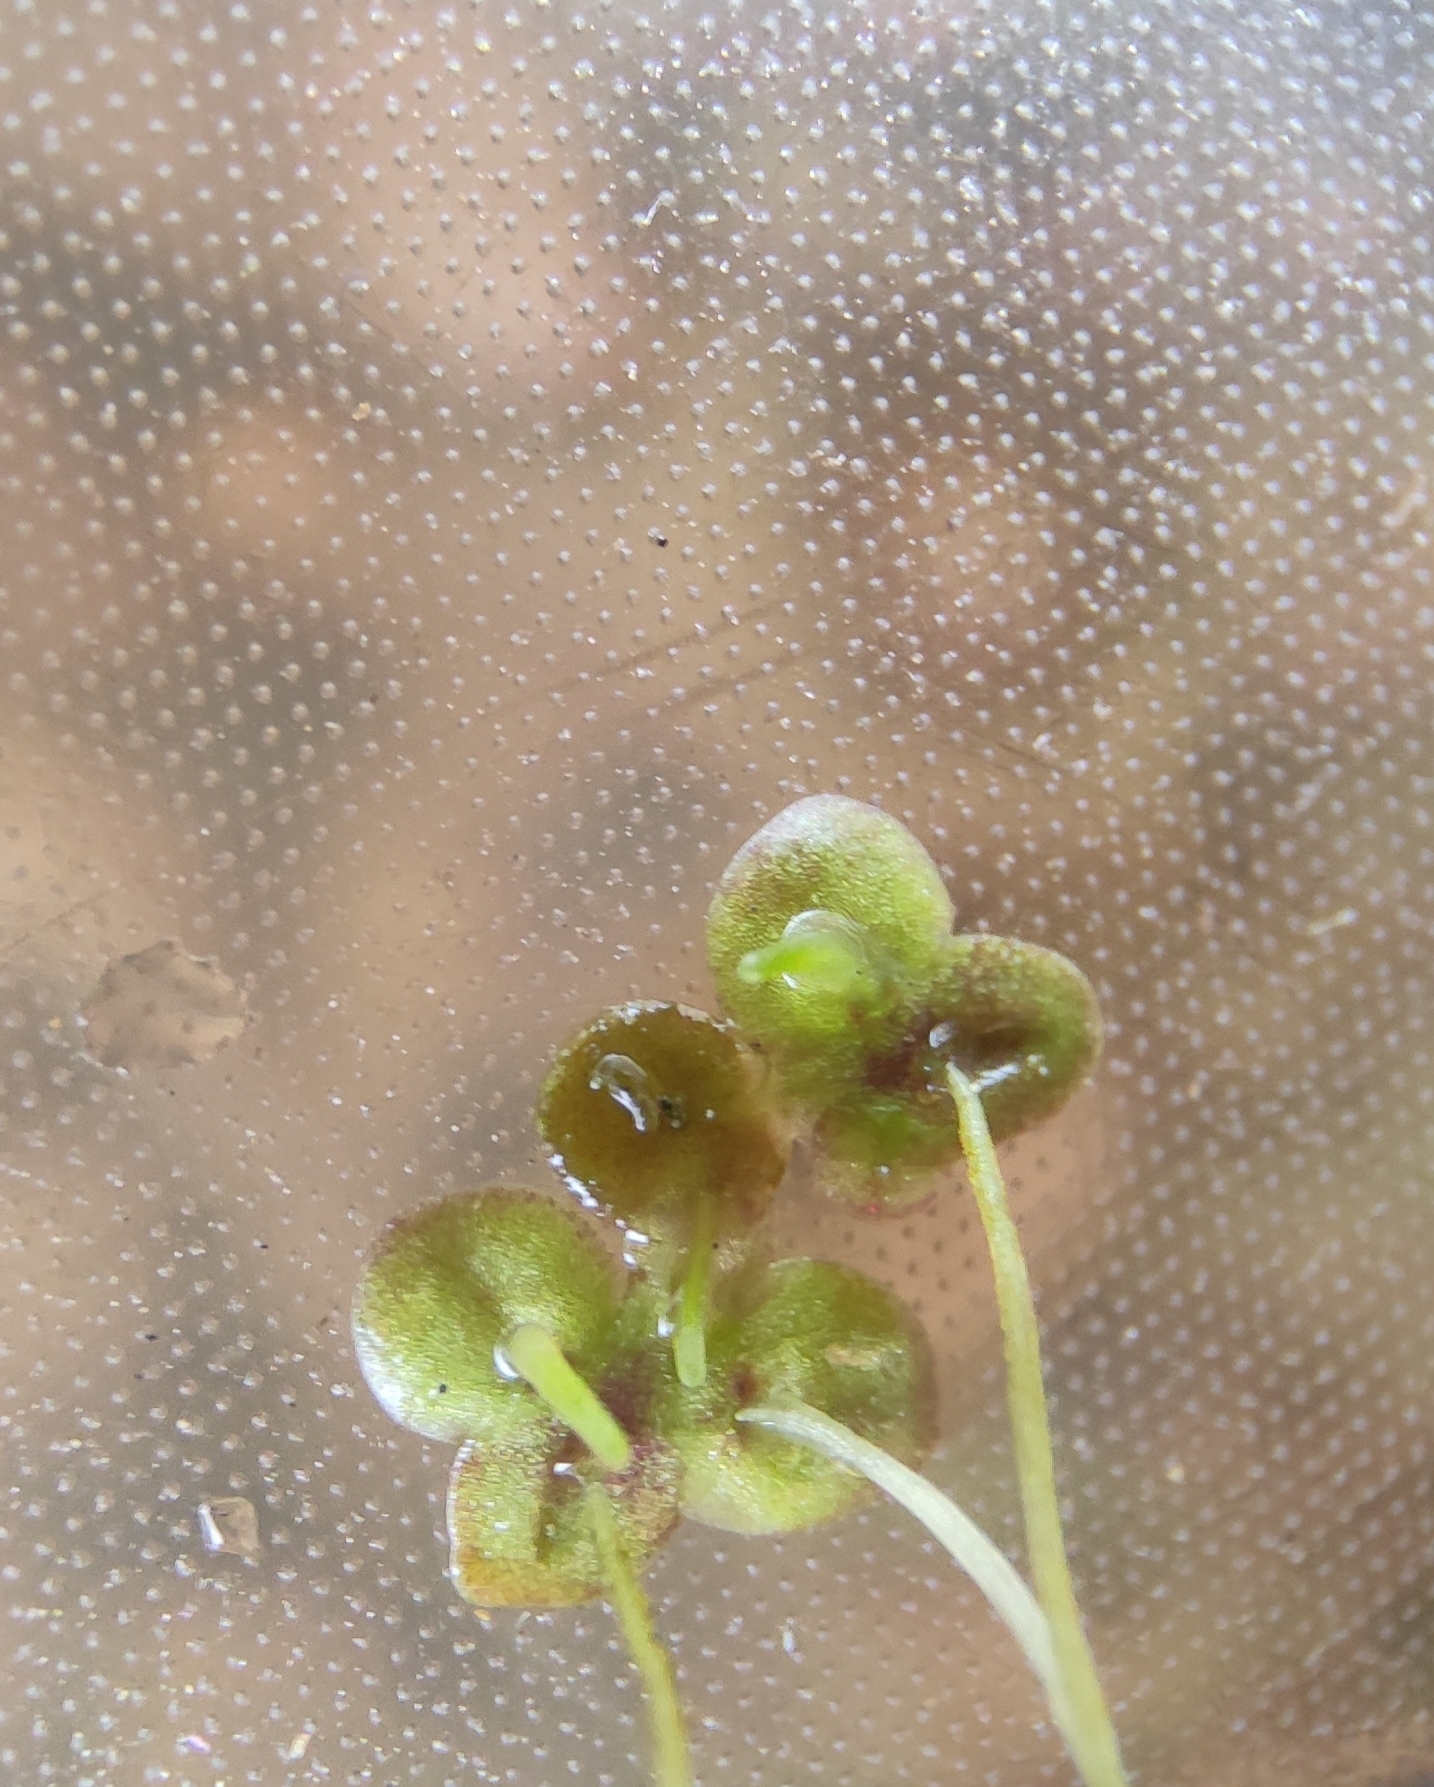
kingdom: Plantae
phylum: Tracheophyta
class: Liliopsida
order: Alismatales
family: Araceae
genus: Lemna
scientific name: Lemna turionifera
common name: Perennial duckweed
